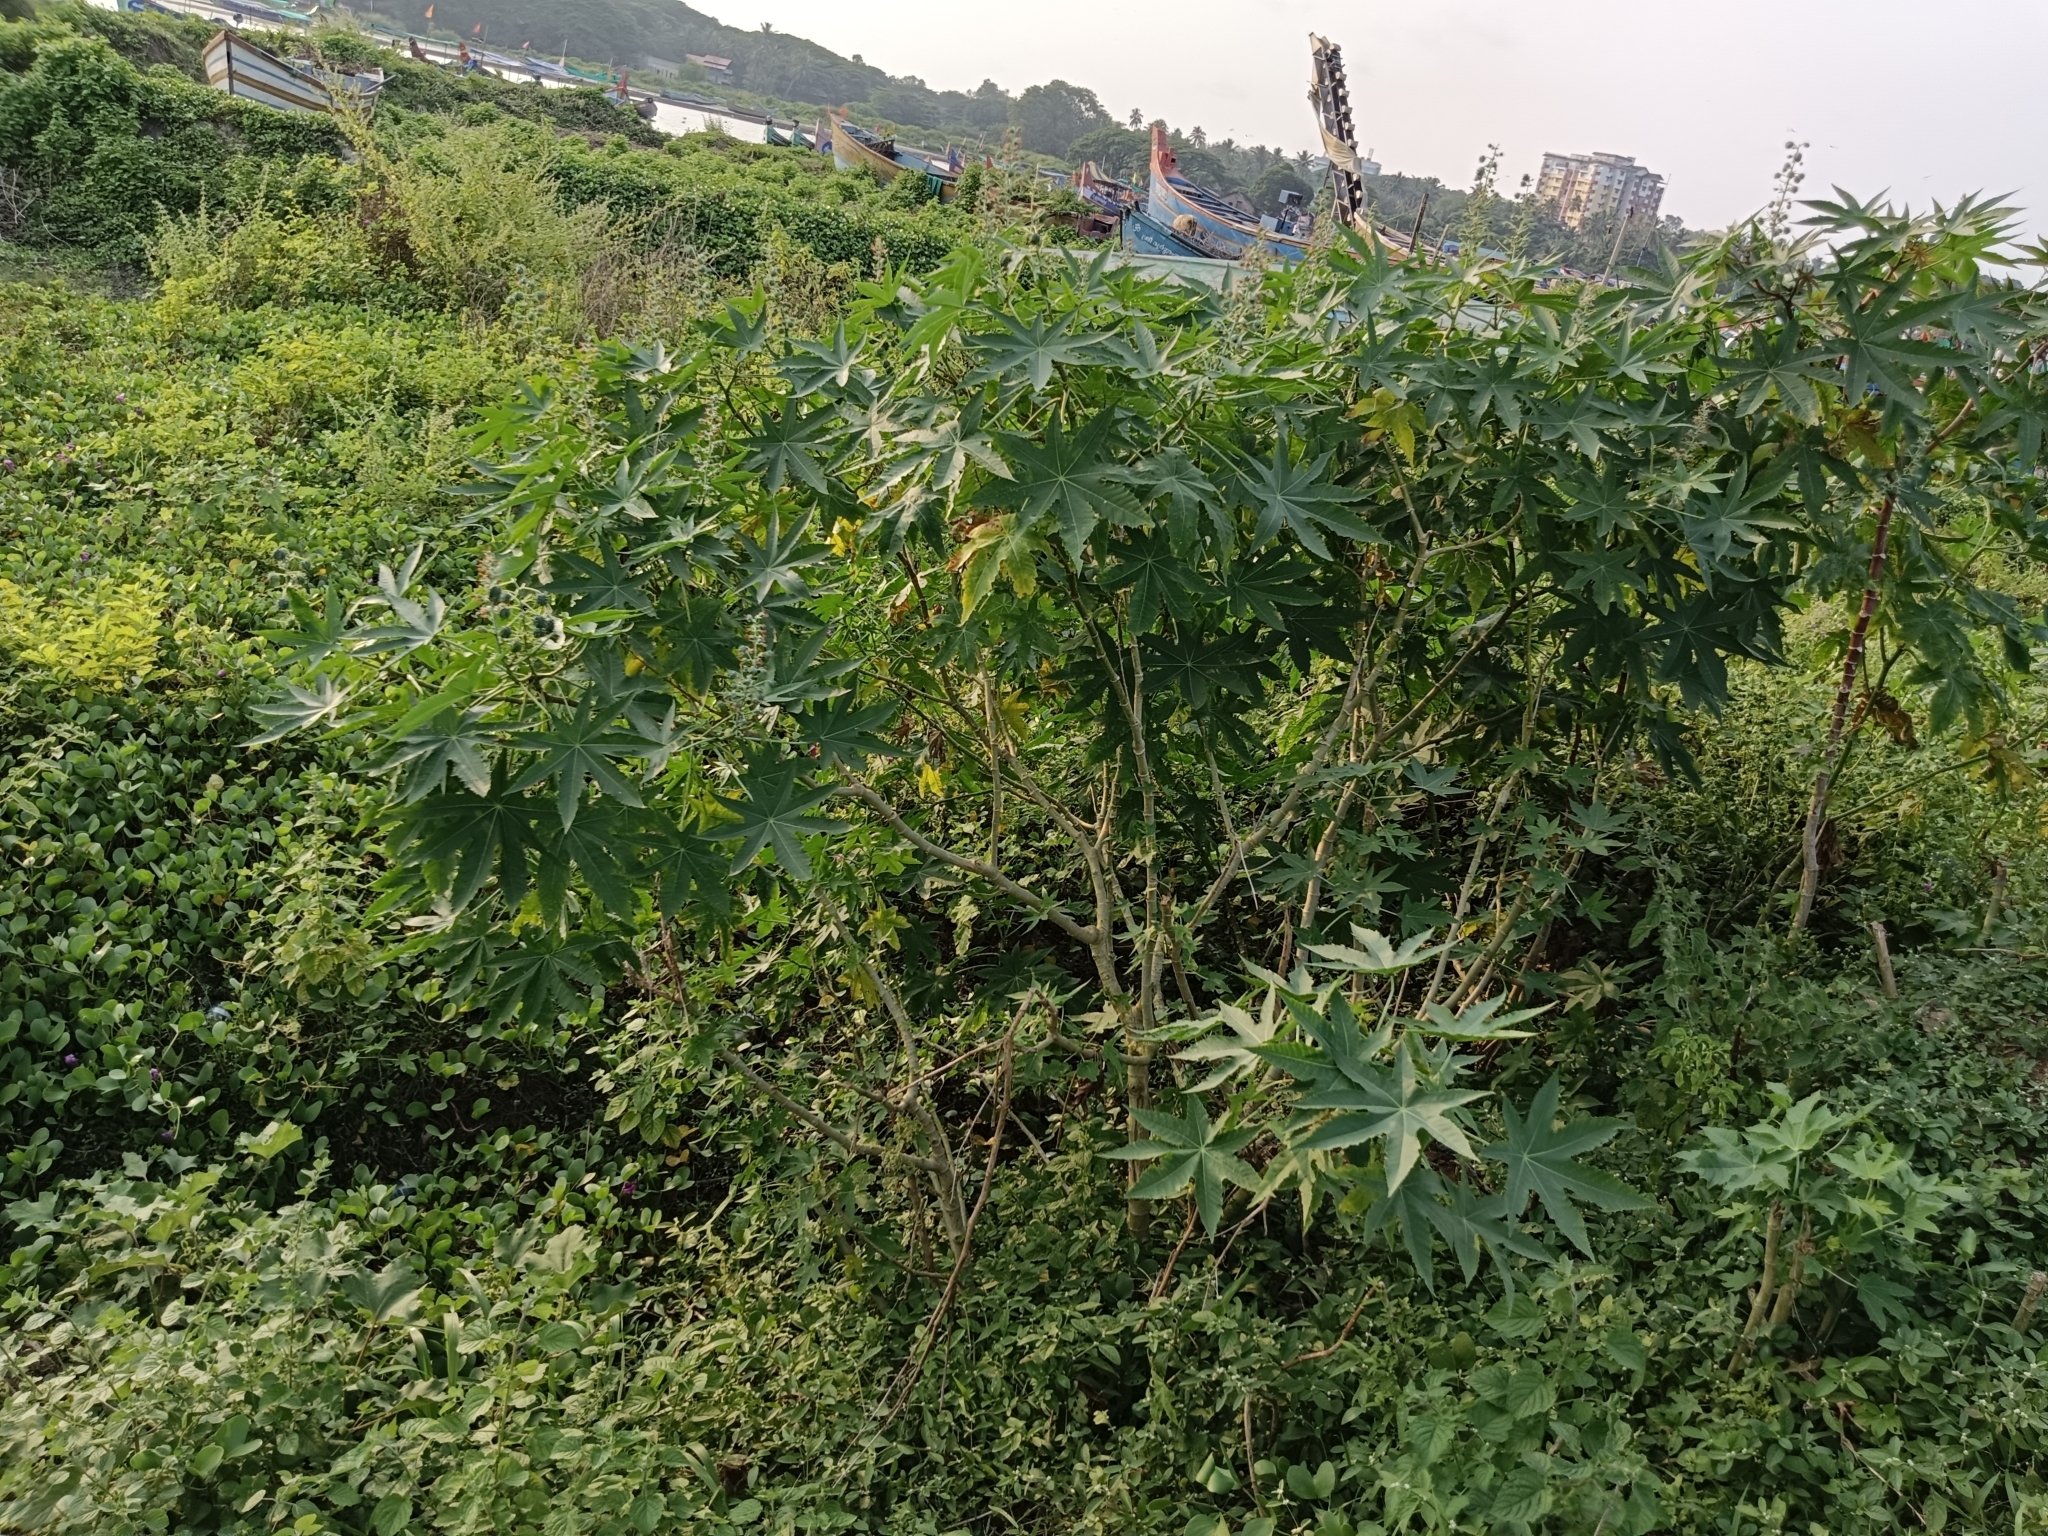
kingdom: Plantae
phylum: Tracheophyta
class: Magnoliopsida
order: Malpighiales
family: Euphorbiaceae
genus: Ricinus
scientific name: Ricinus communis
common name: Castor-oil-plant
